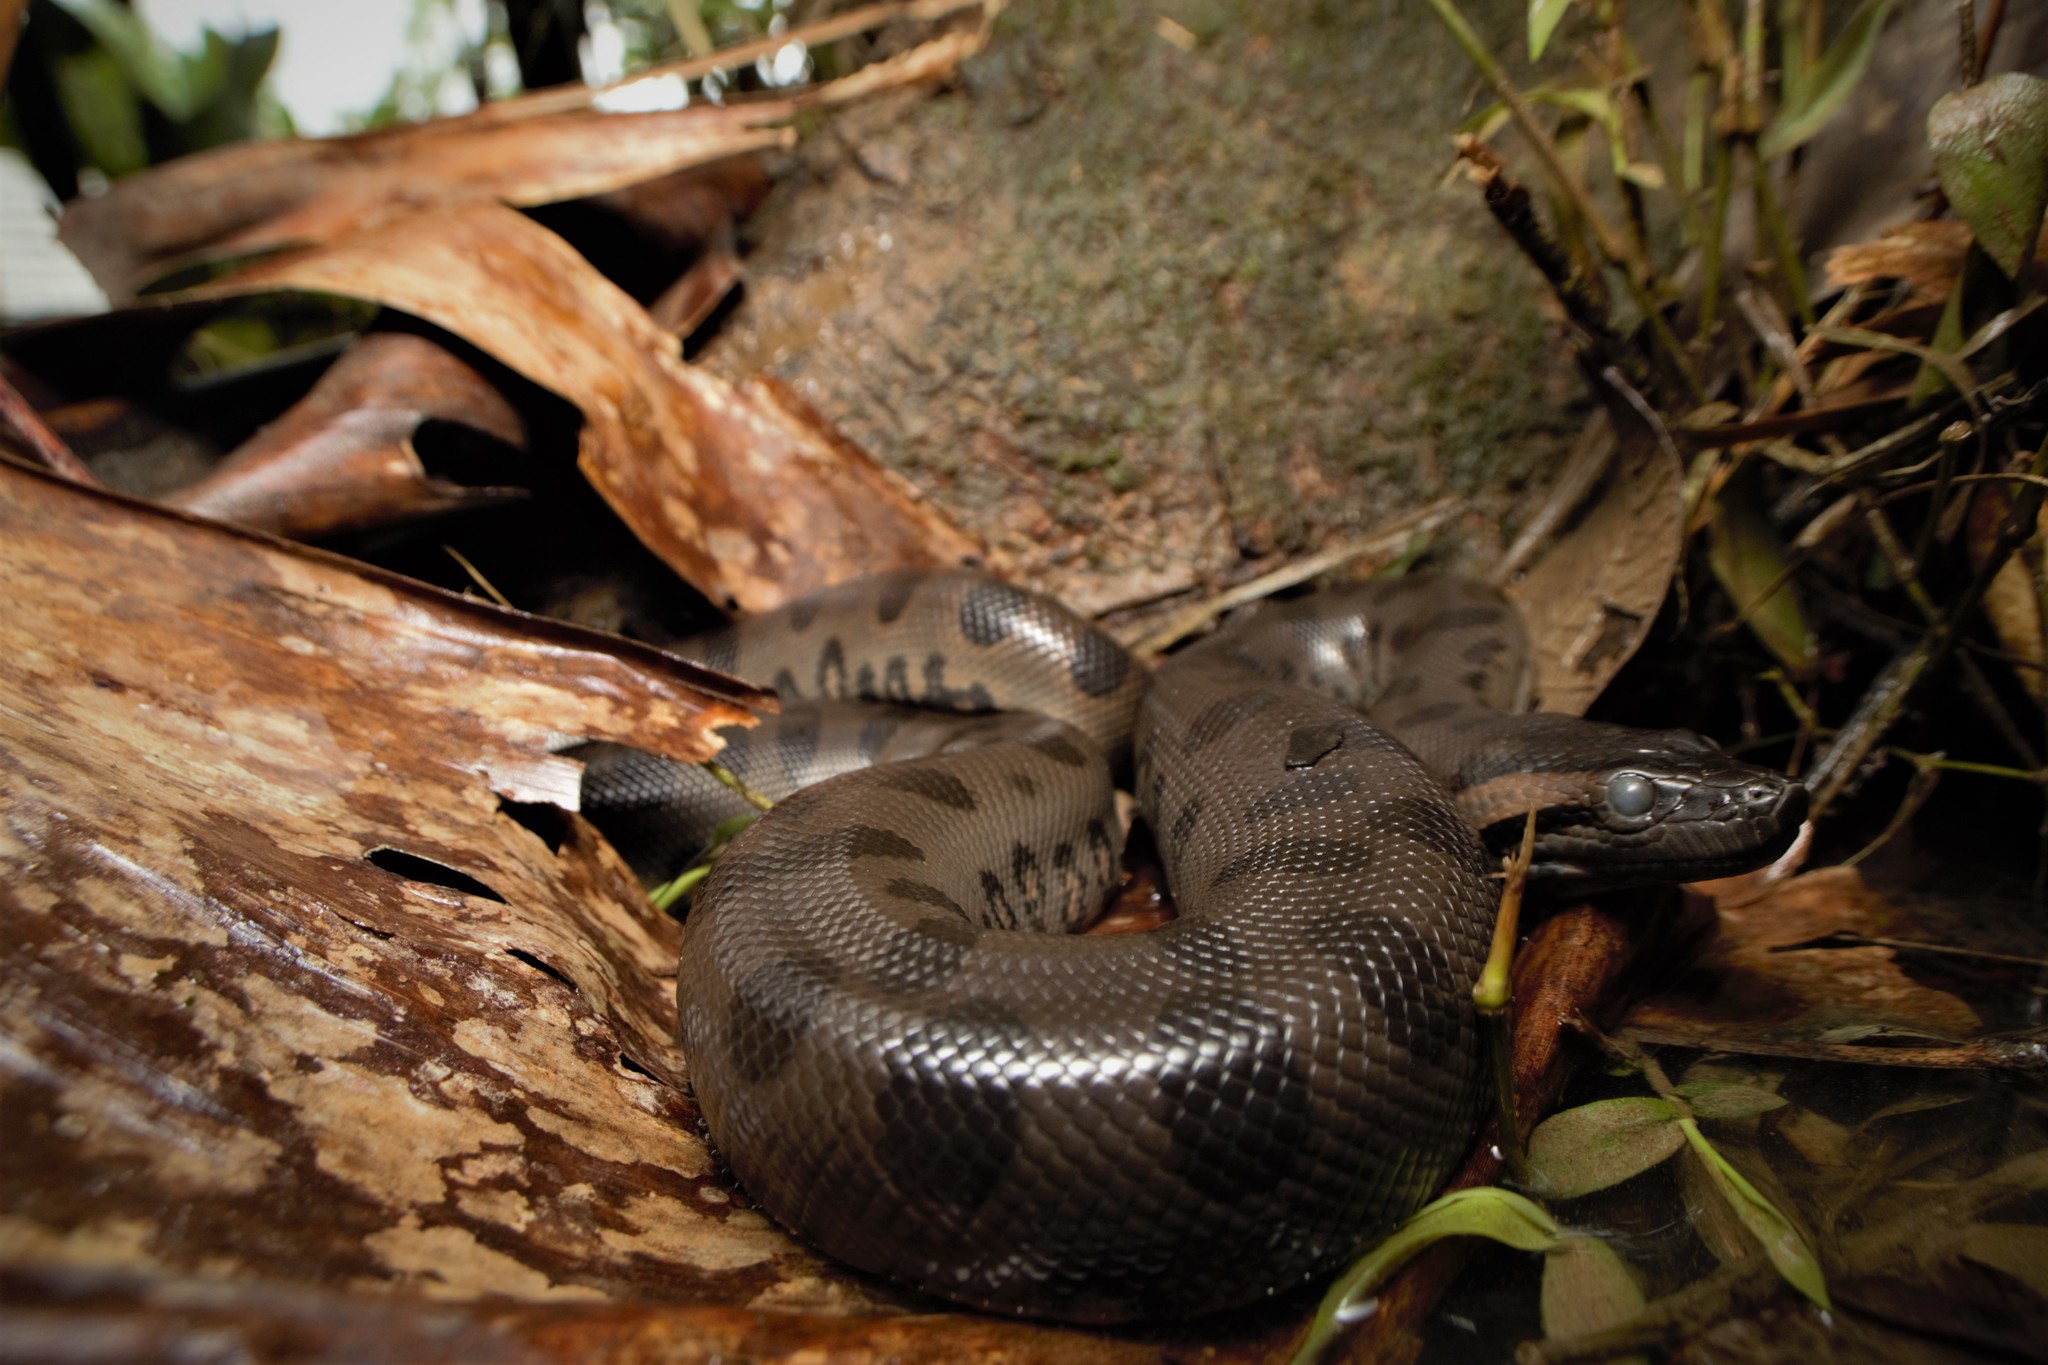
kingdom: Animalia
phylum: Chordata
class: Squamata
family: Boidae
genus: Eunectes
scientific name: Eunectes murinus
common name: Anaconda
